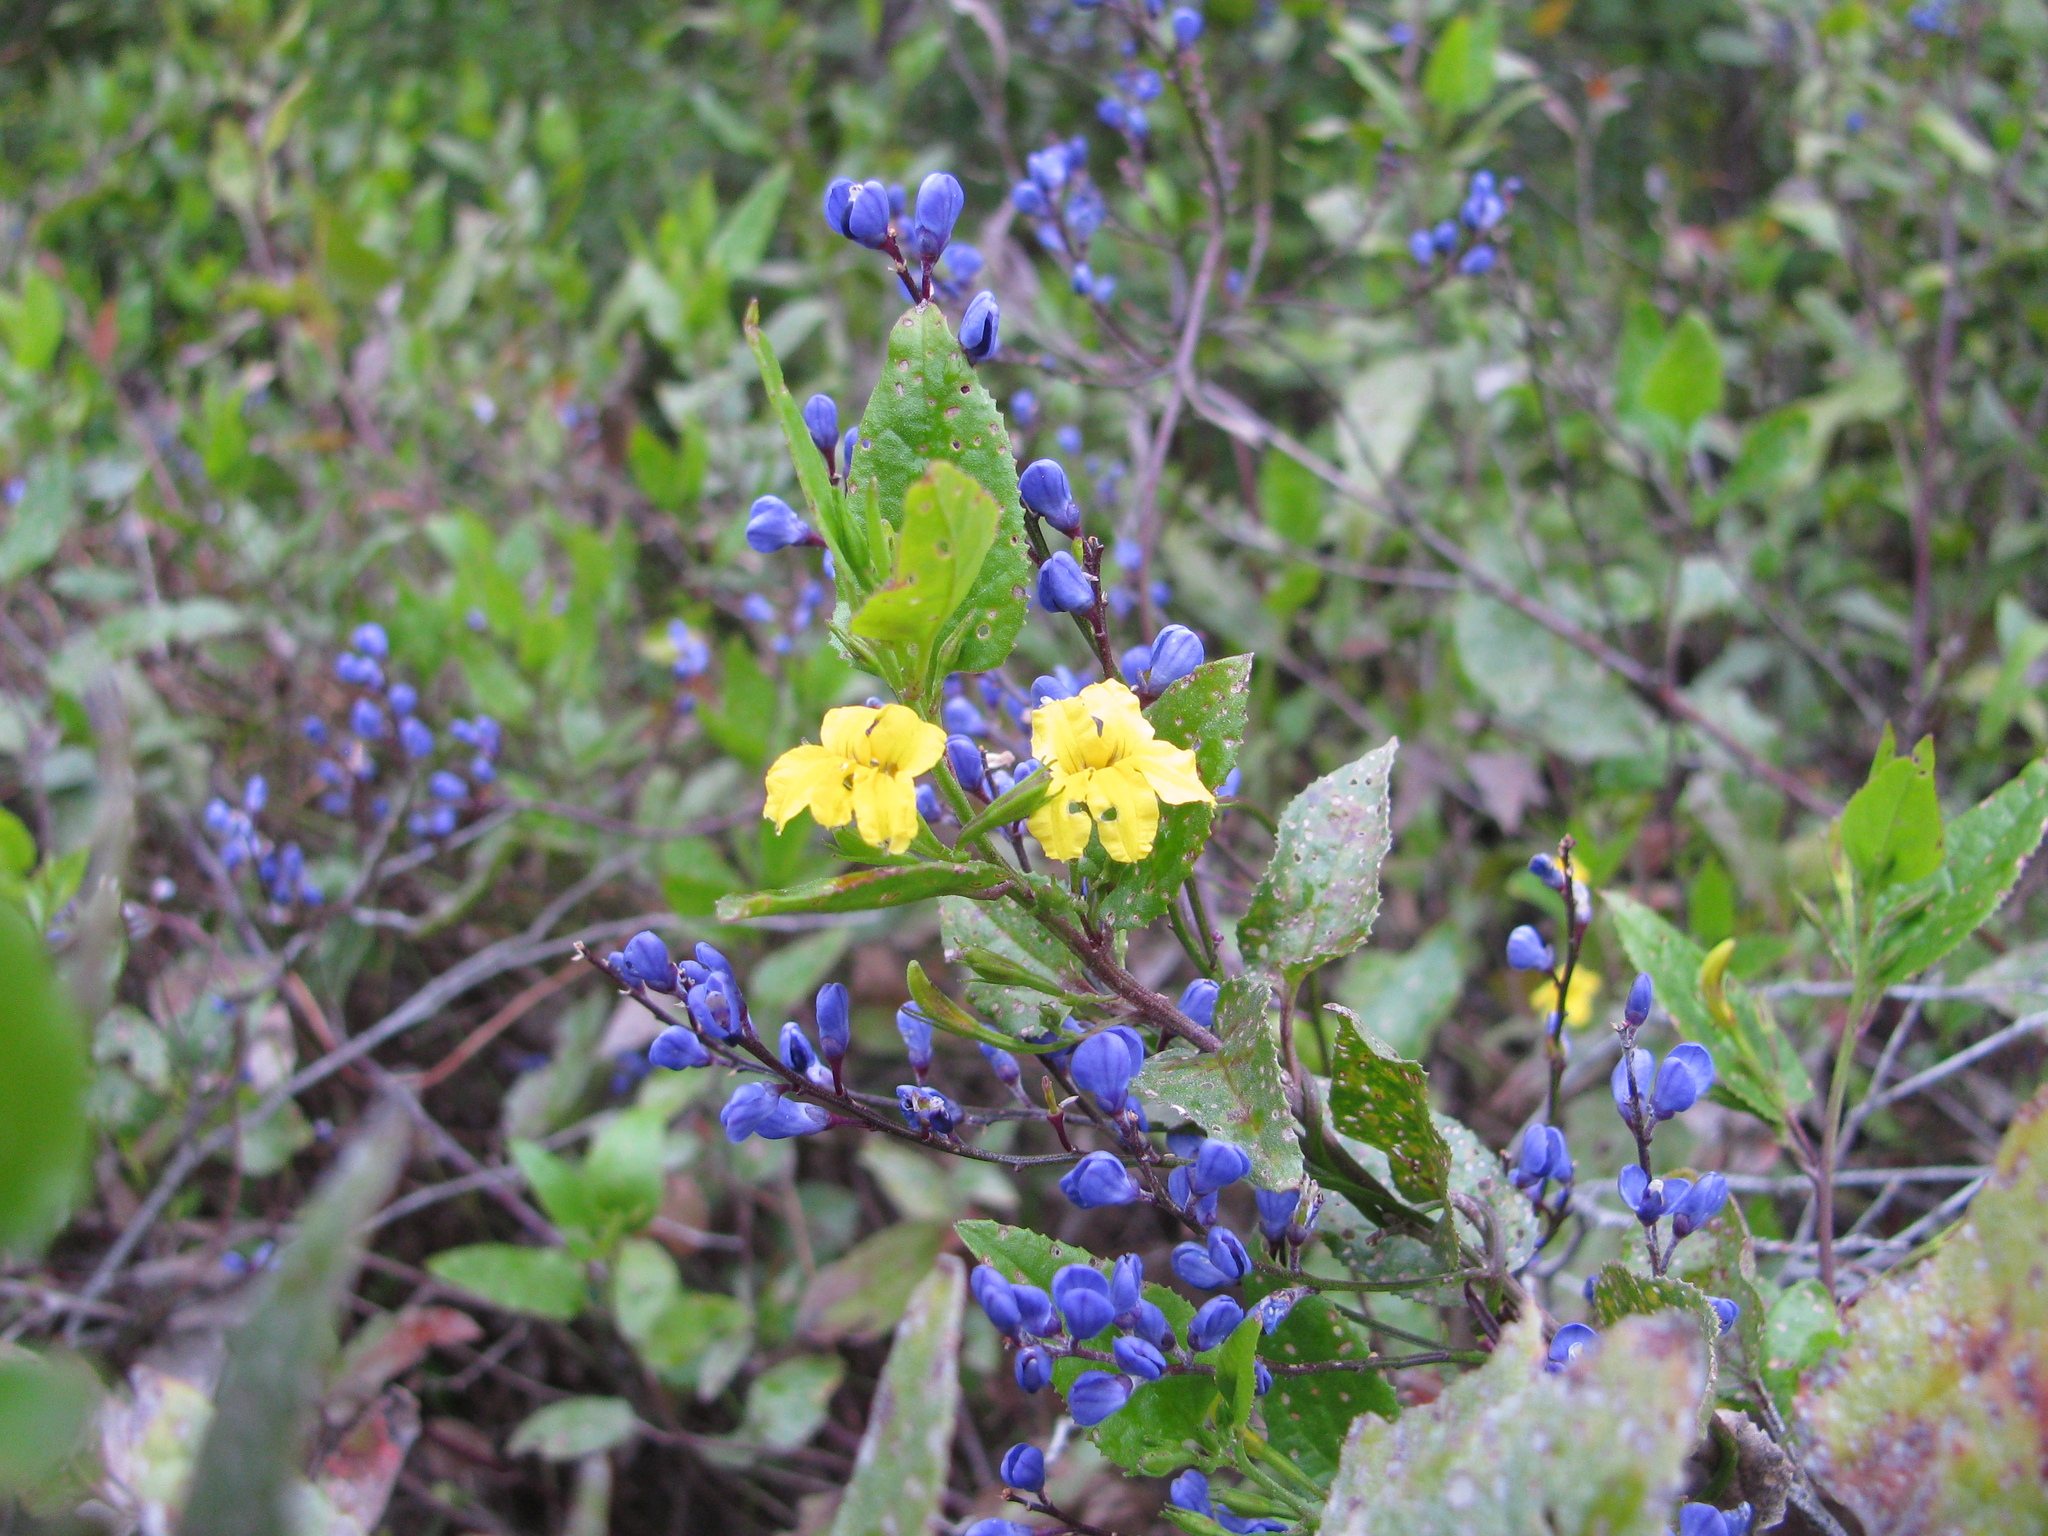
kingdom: Plantae
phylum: Tracheophyta
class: Magnoliopsida
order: Fabales
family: Polygalaceae
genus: Comesperma
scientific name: Comesperma volubile
